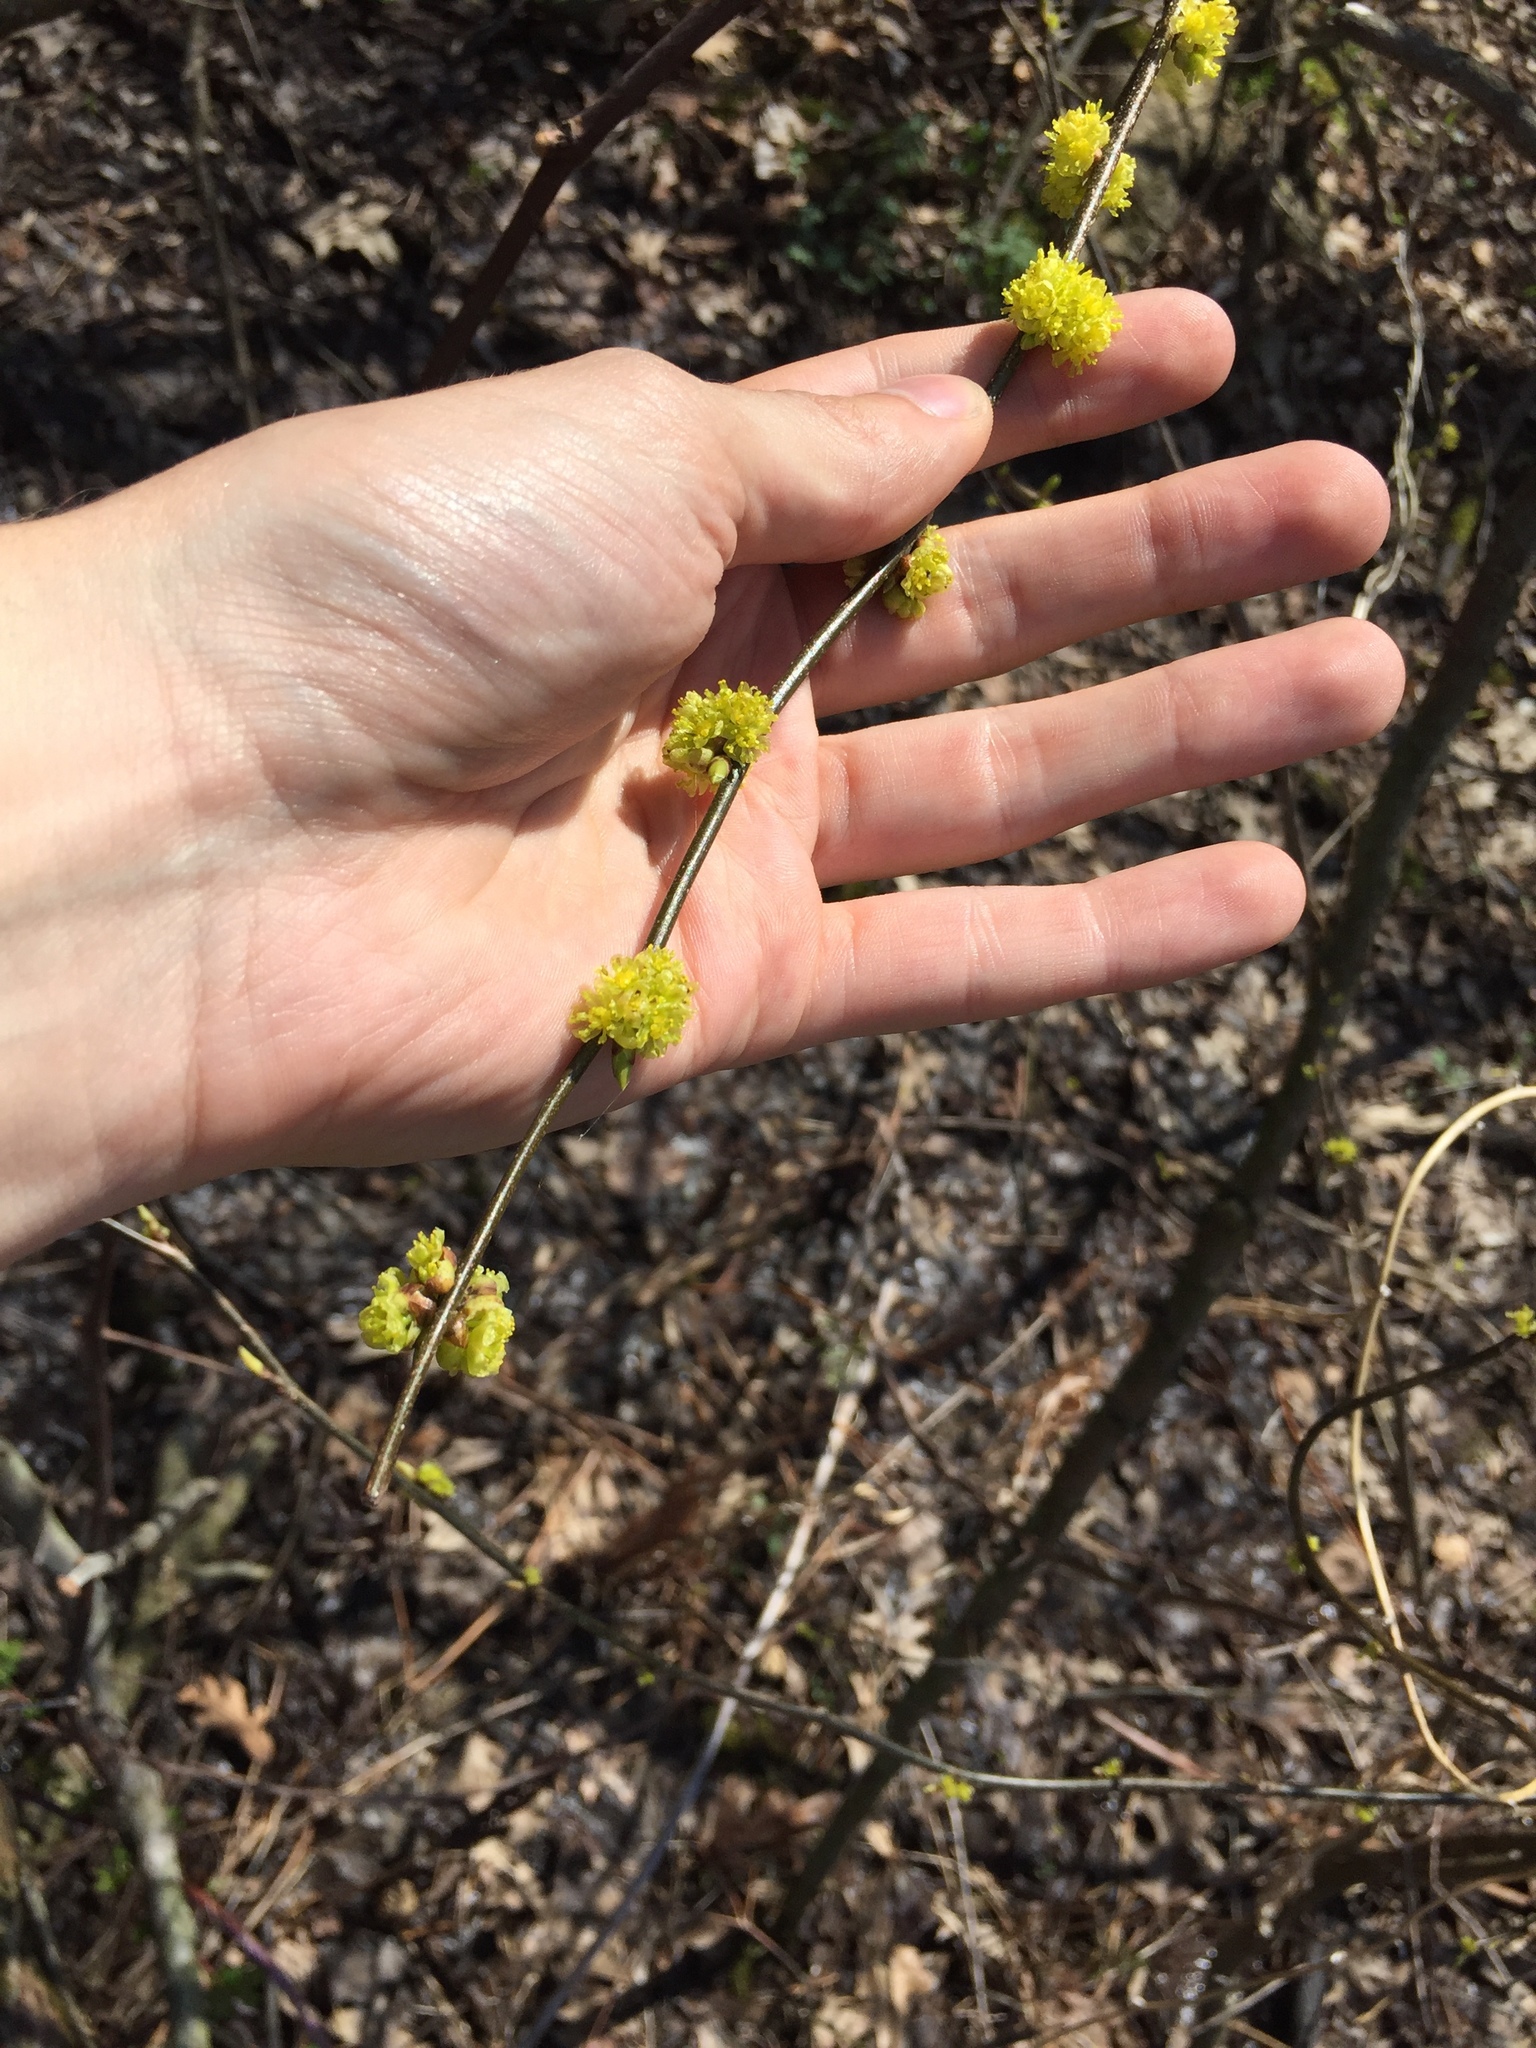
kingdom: Plantae
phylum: Tracheophyta
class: Magnoliopsida
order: Laurales
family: Lauraceae
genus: Lindera
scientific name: Lindera benzoin
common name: Spicebush
